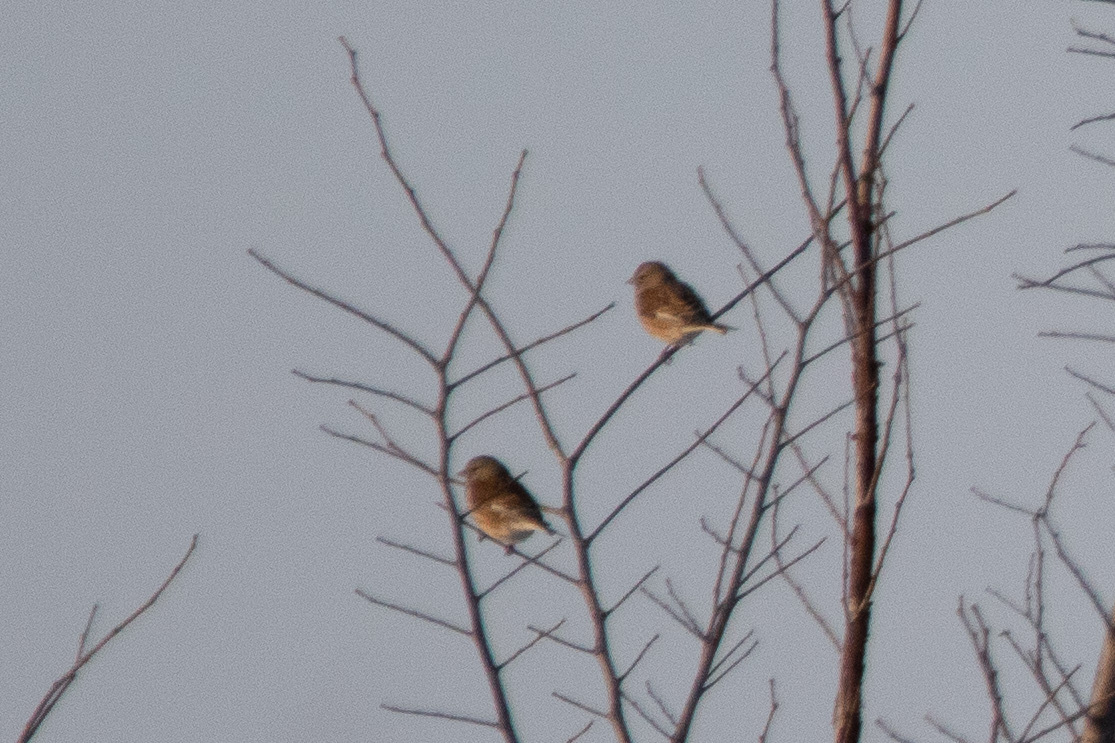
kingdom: Animalia
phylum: Chordata
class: Aves
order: Passeriformes
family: Fringillidae
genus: Linaria
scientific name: Linaria cannabina
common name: Common linnet
